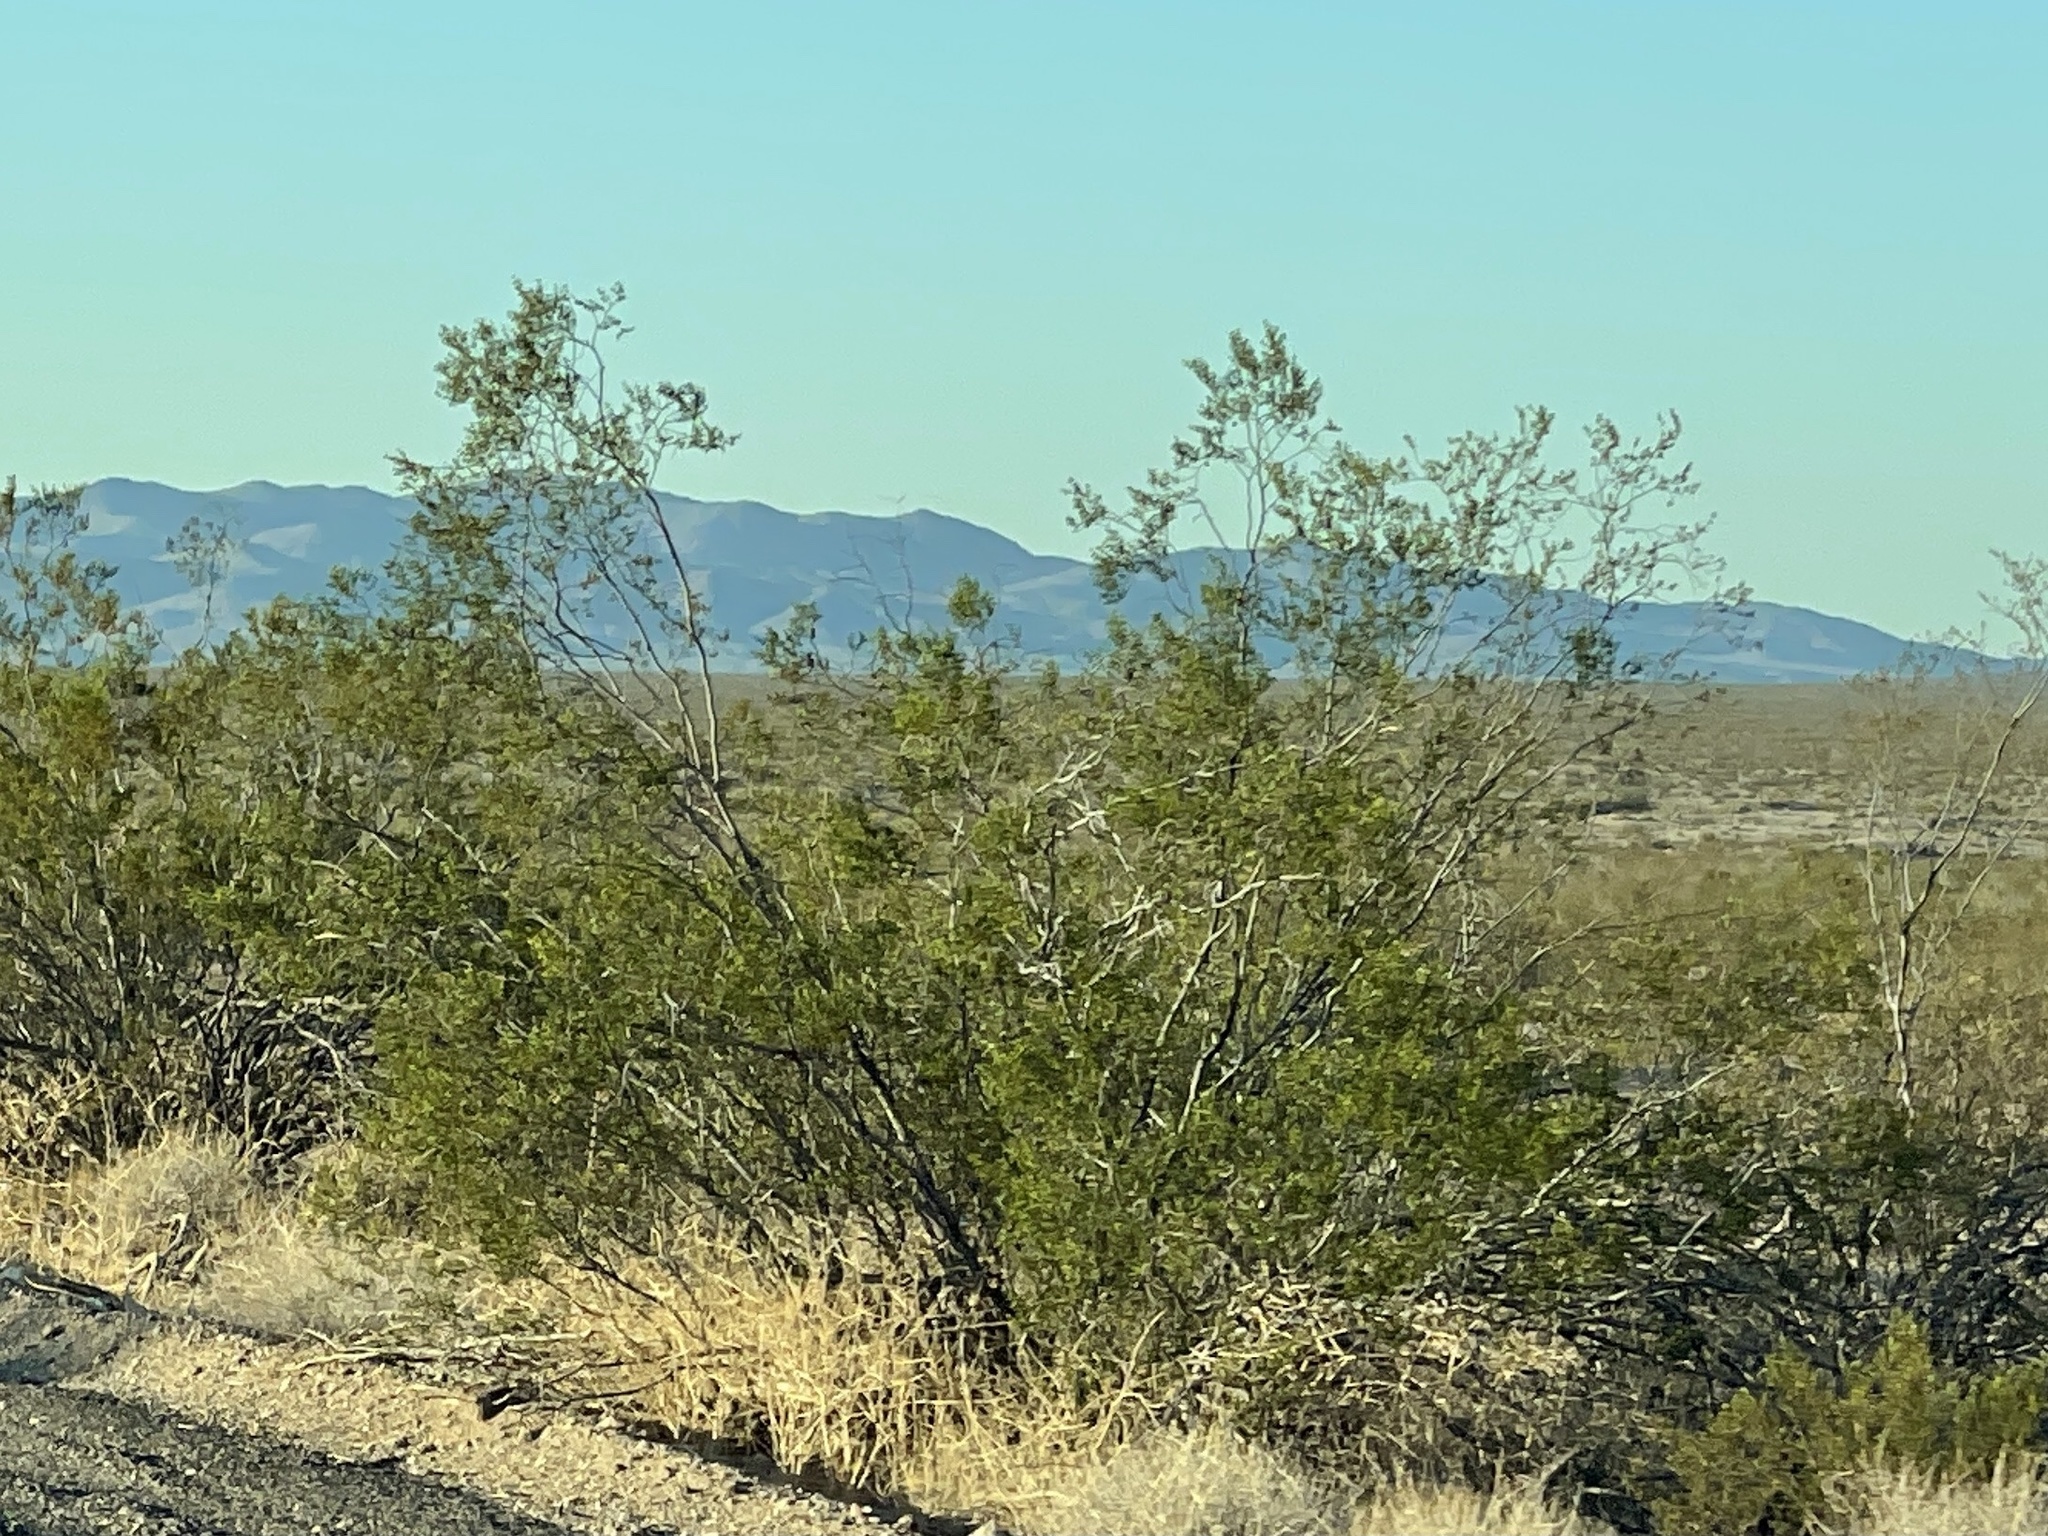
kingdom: Plantae
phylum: Tracheophyta
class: Magnoliopsida
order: Zygophyllales
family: Zygophyllaceae
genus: Larrea
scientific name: Larrea tridentata
